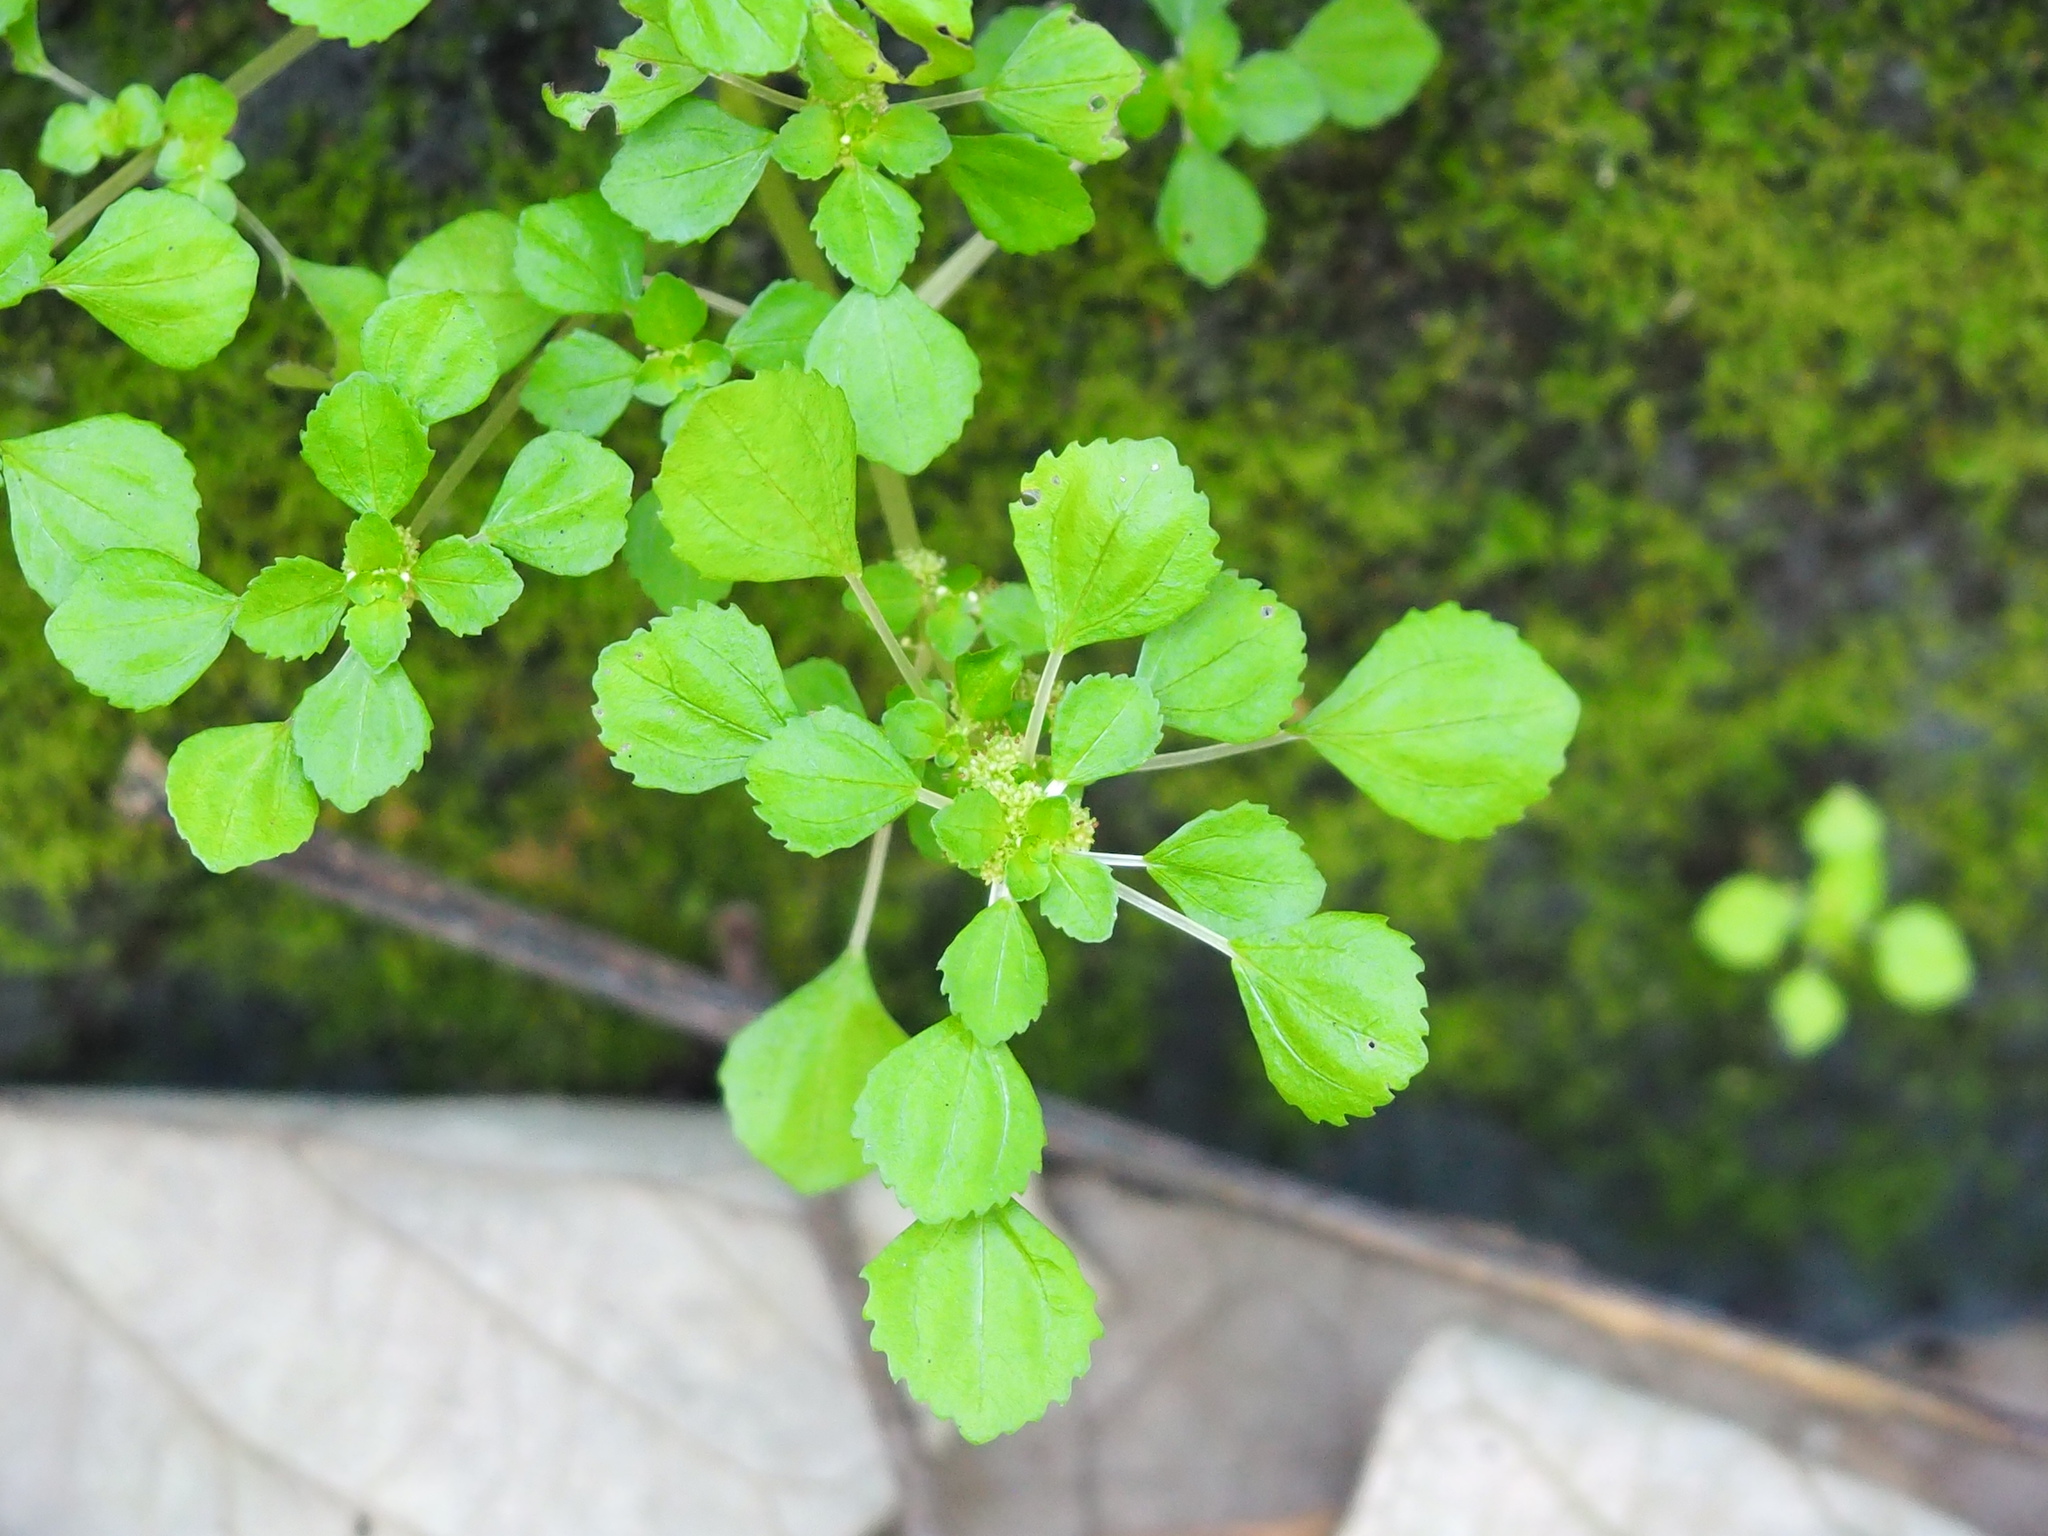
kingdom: Plantae
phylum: Tracheophyta
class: Magnoliopsida
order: Rosales
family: Urticaceae
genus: Pilea
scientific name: Pilea peploides
